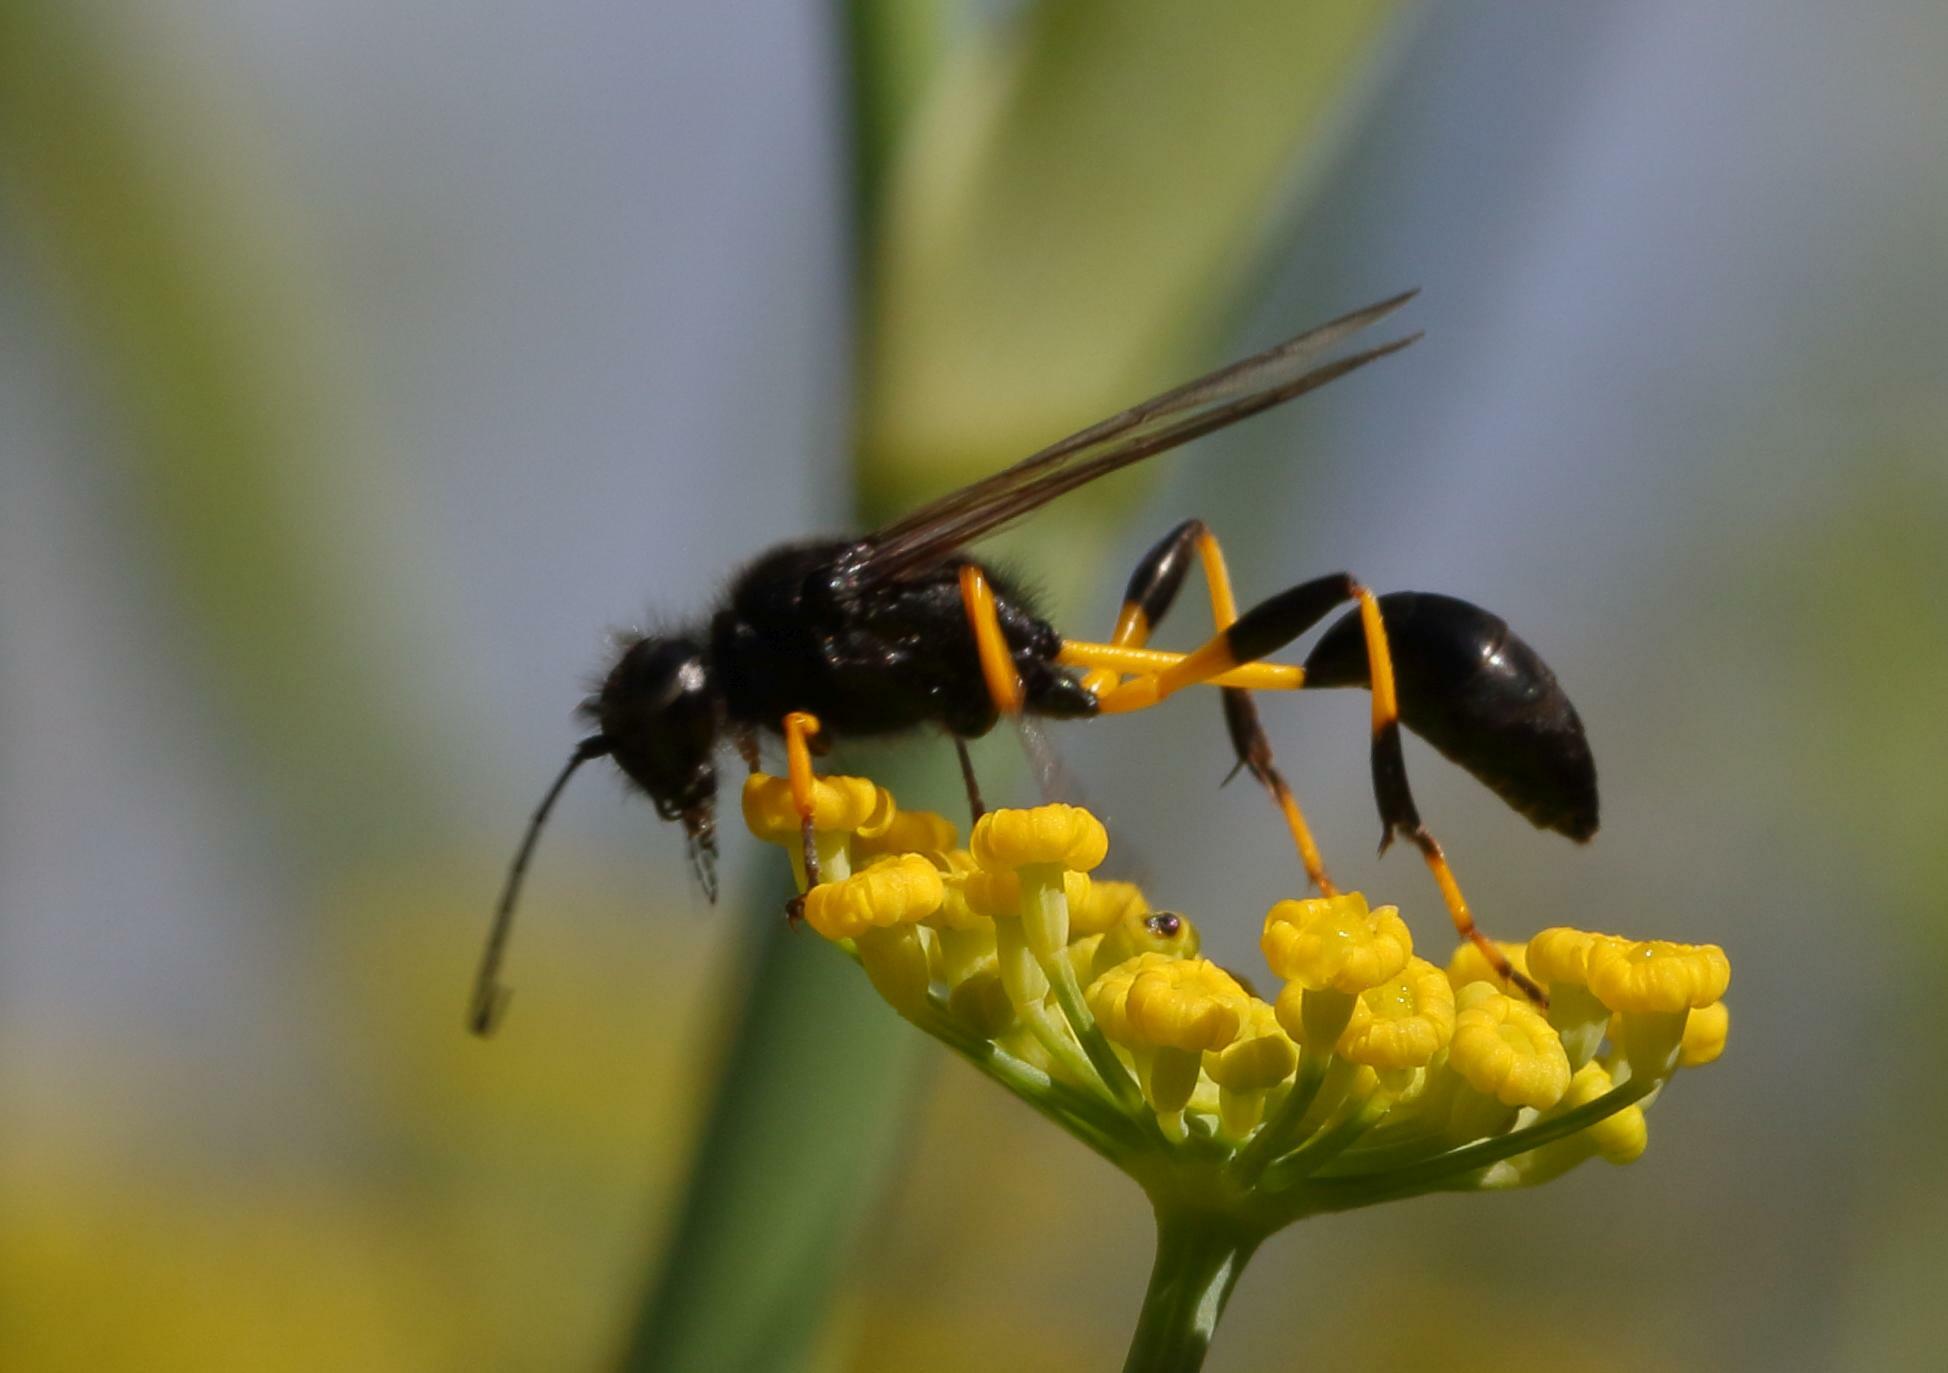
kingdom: Animalia
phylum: Arthropoda
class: Insecta
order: Hymenoptera
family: Sphecidae
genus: Sceliphron
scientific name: Sceliphron spirifex
